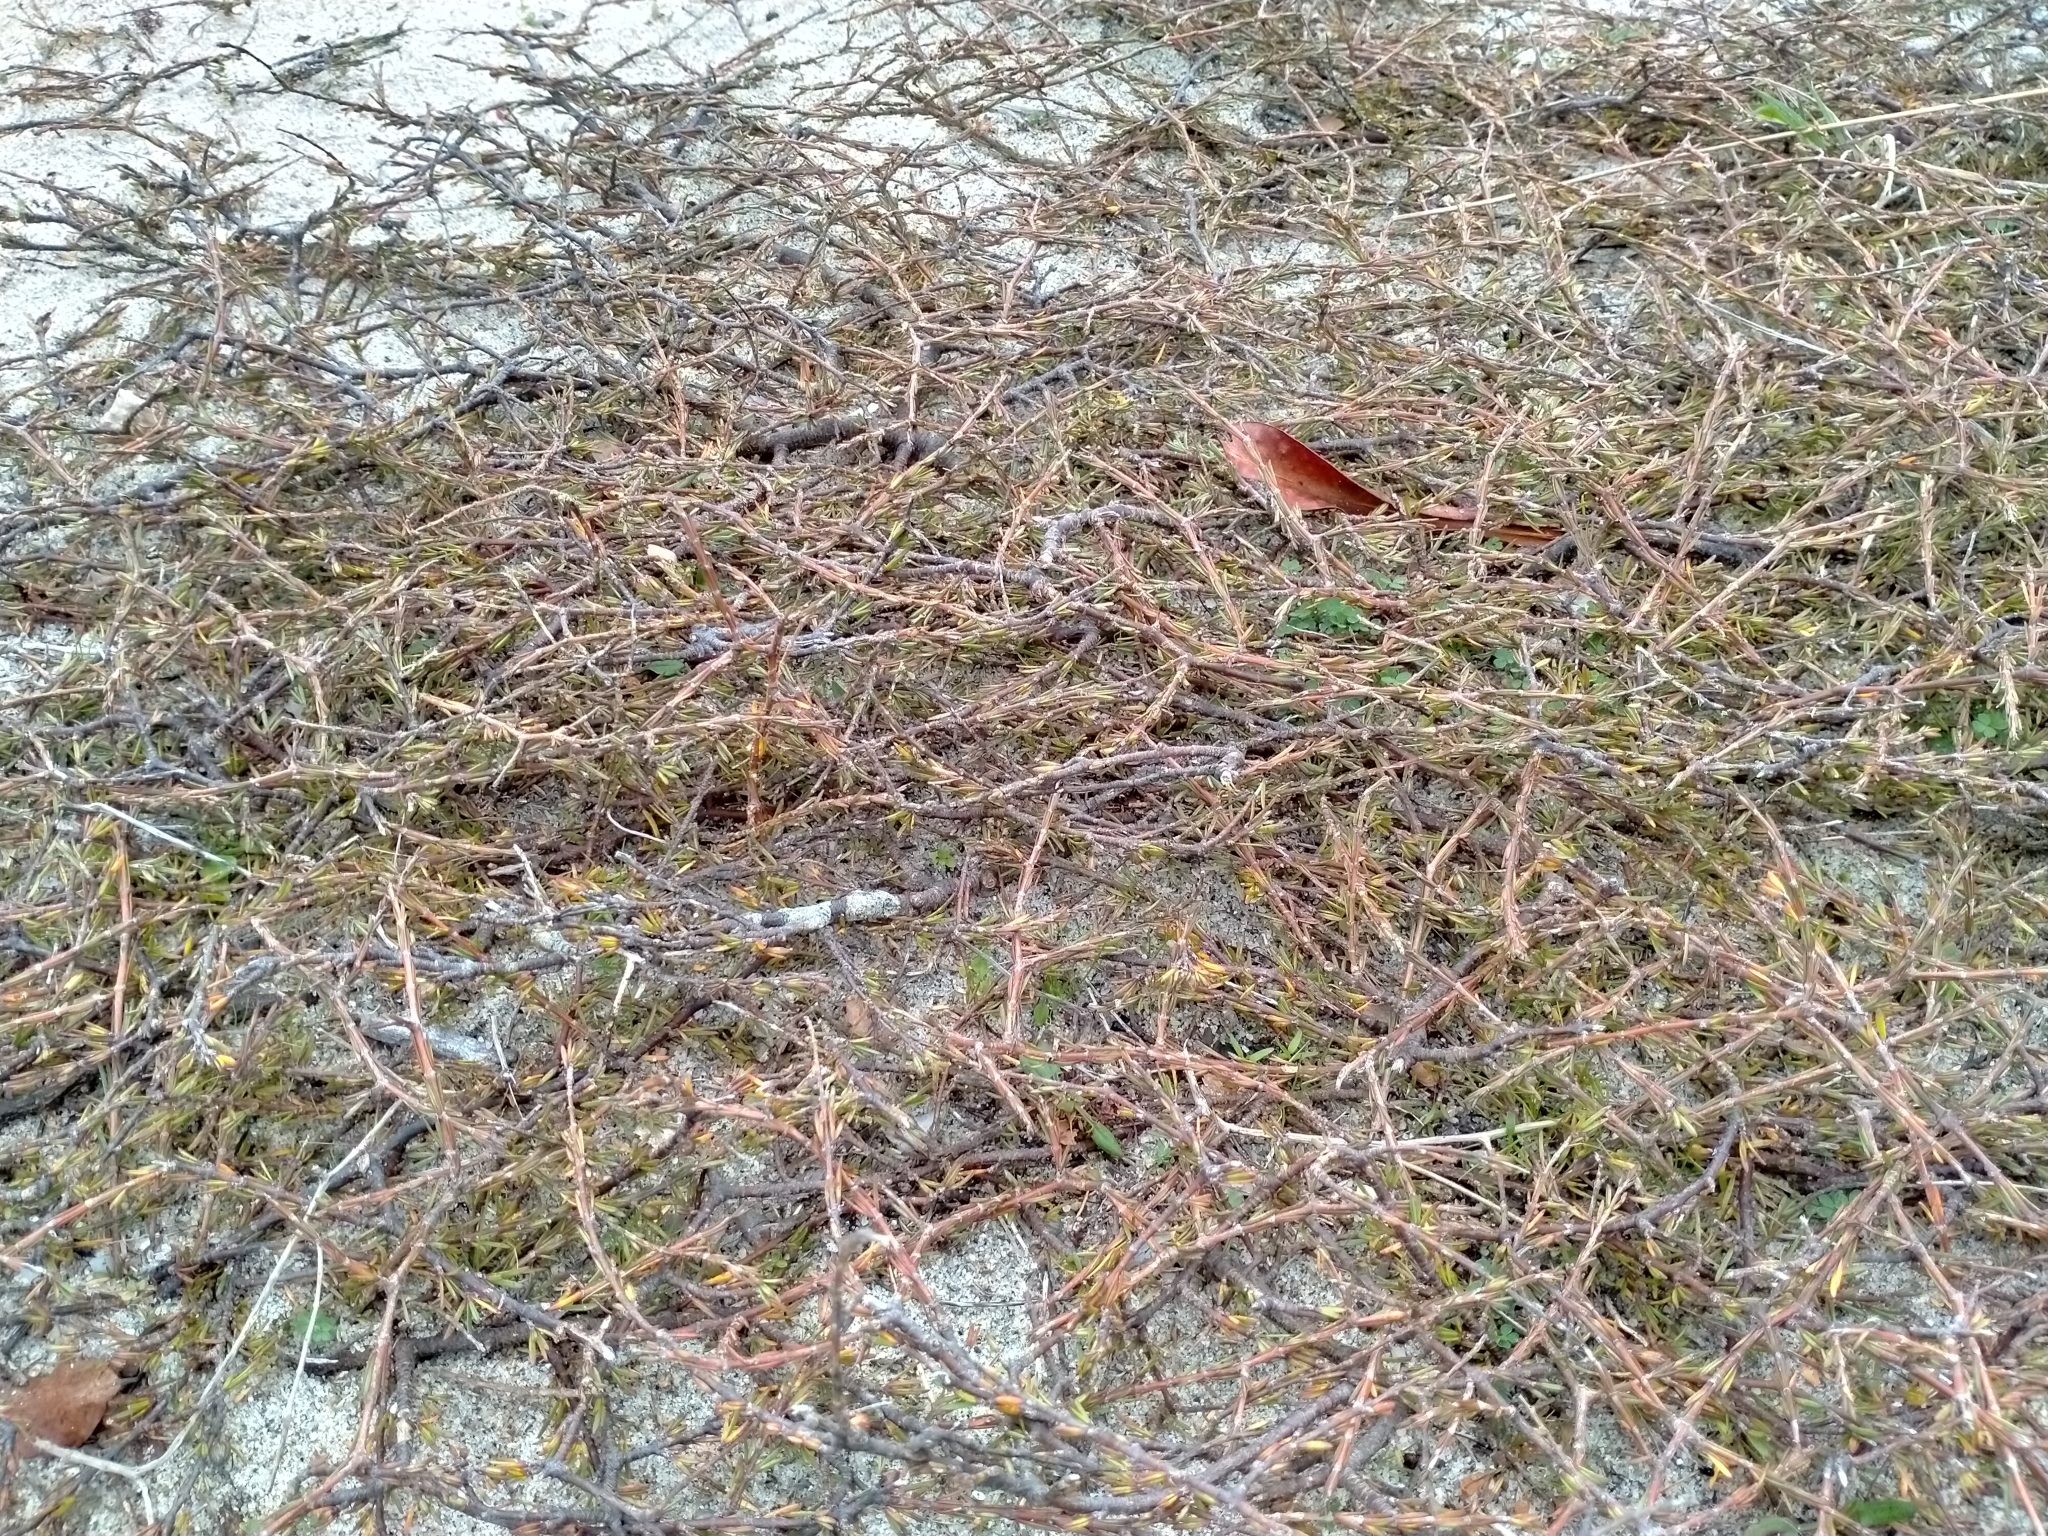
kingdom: Plantae
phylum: Tracheophyta
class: Magnoliopsida
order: Gentianales
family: Rubiaceae
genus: Coprosma
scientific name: Coprosma acerosa
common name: Sand coprosma
